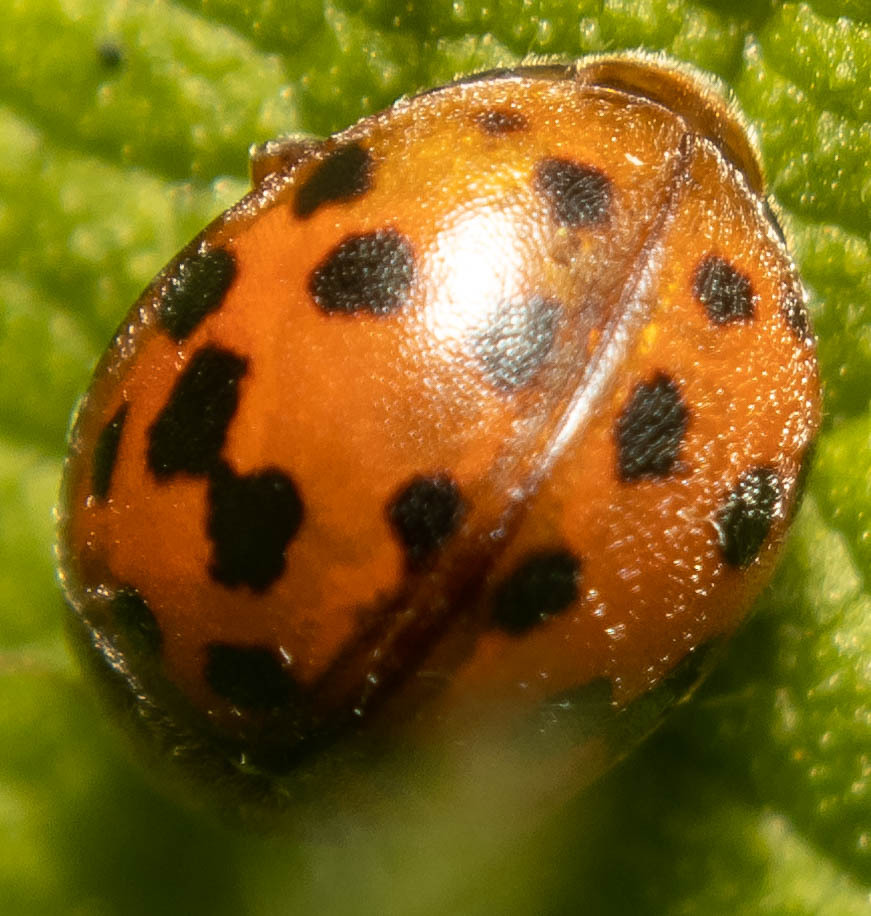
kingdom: Animalia
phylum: Arthropoda
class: Insecta
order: Coleoptera
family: Coccinellidae
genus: Subcoccinella
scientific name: Subcoccinella vigintiquatuorpunctata
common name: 24-spot ladybird
